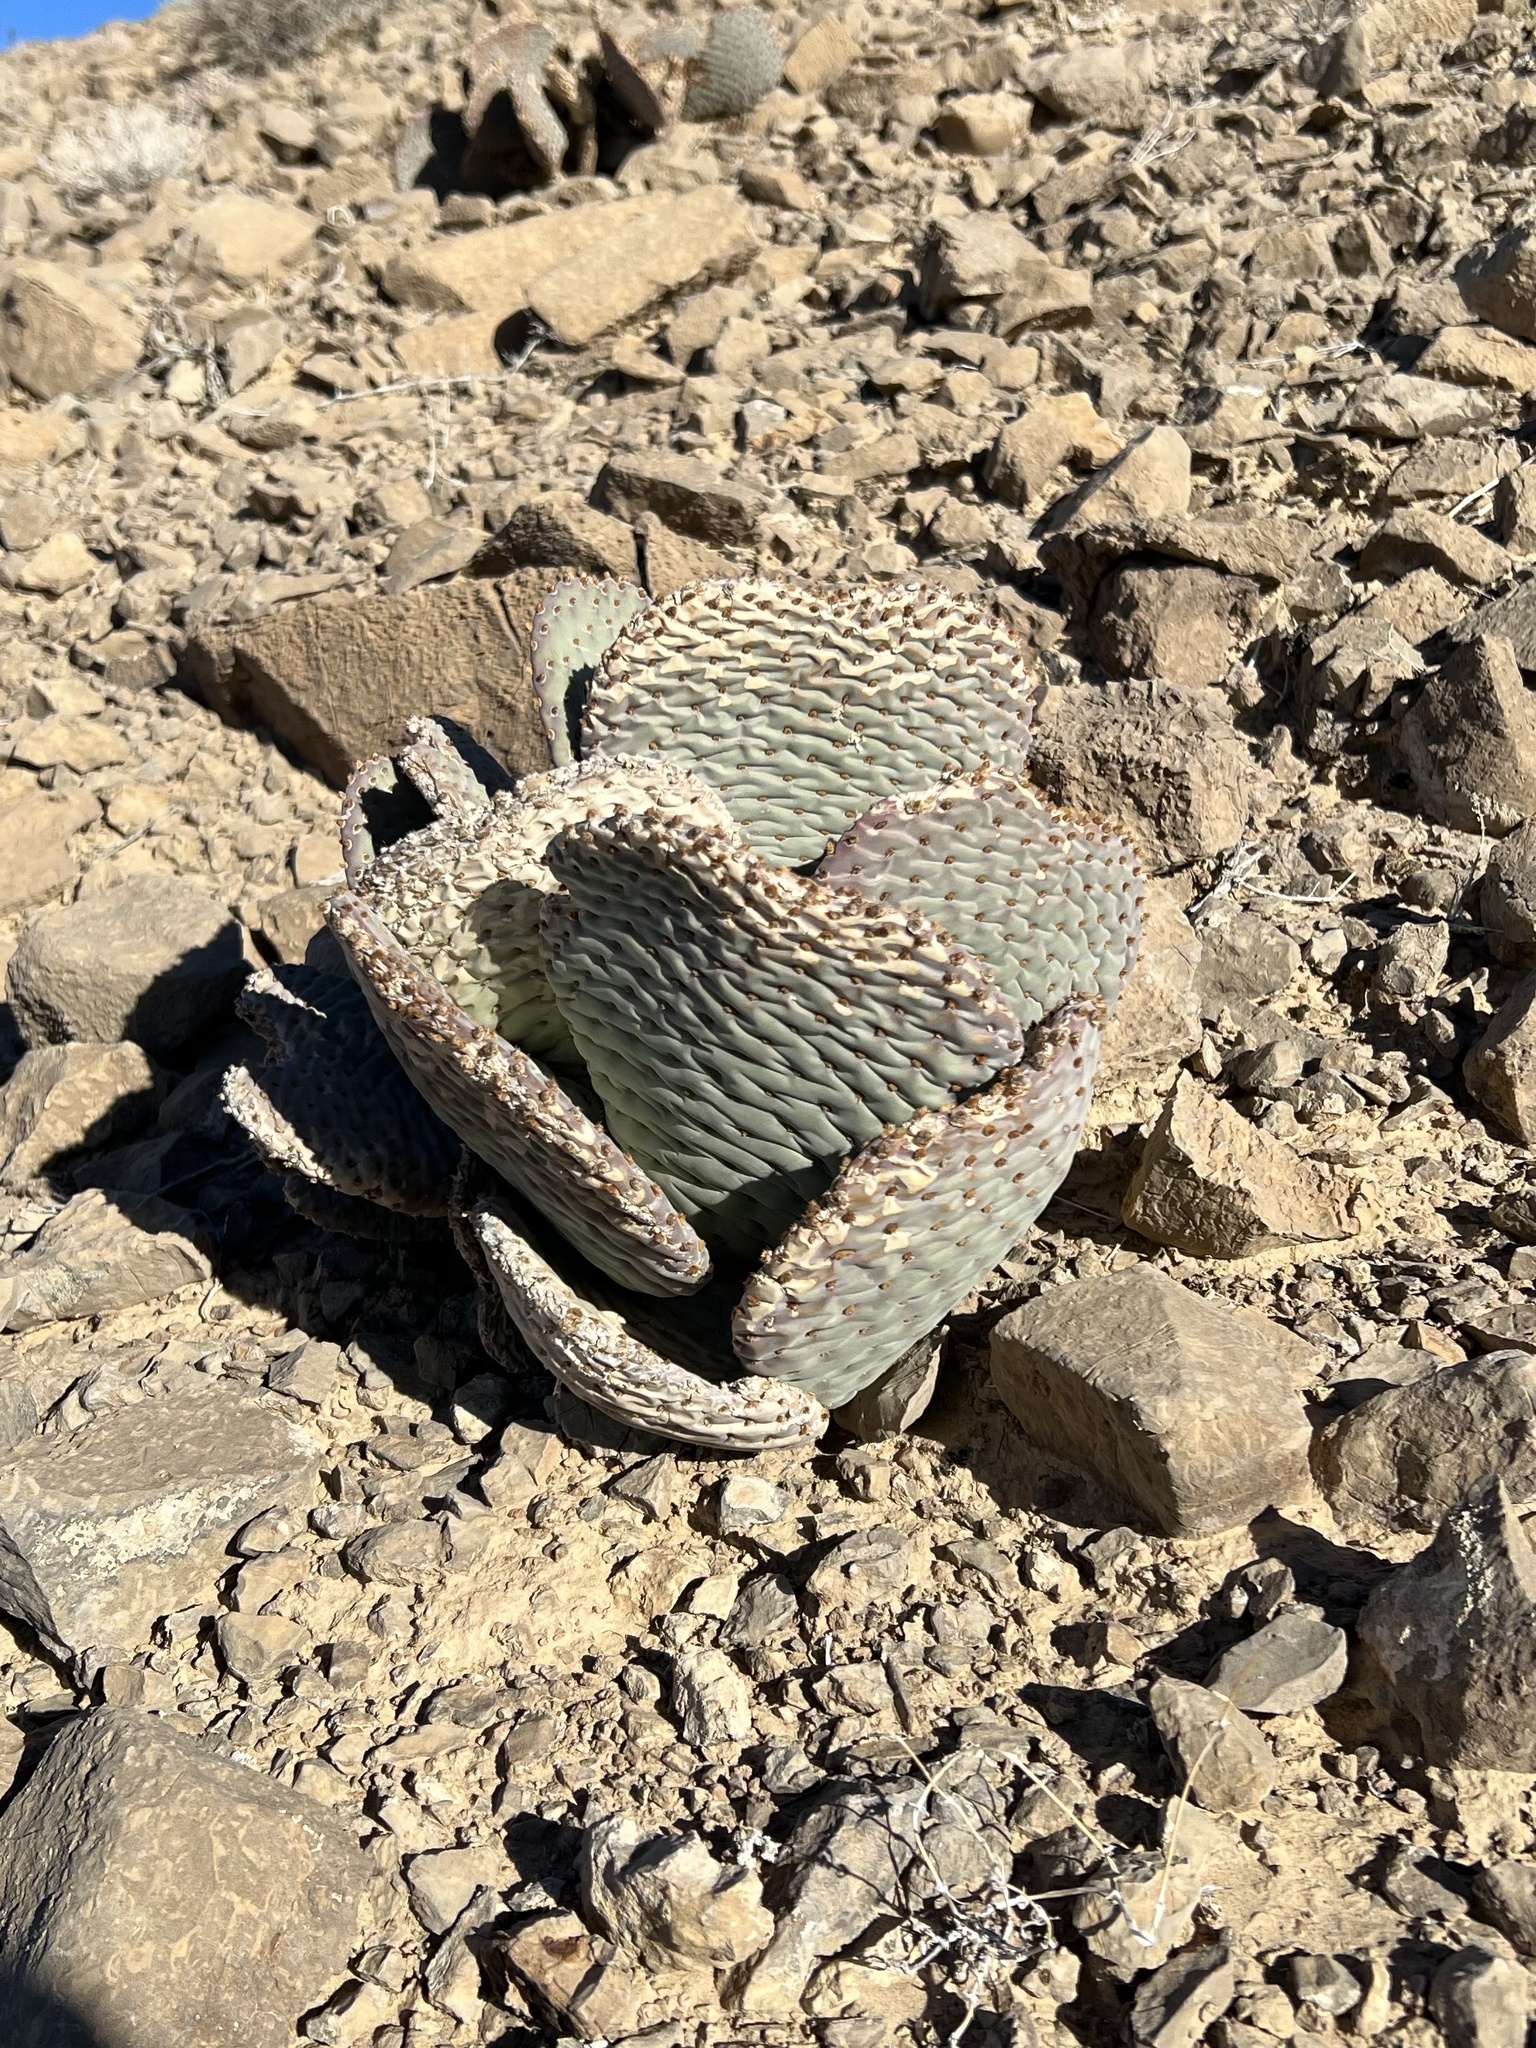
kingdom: Plantae
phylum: Tracheophyta
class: Magnoliopsida
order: Caryophyllales
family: Cactaceae
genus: Opuntia
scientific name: Opuntia basilaris
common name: Beavertail prickly-pear
